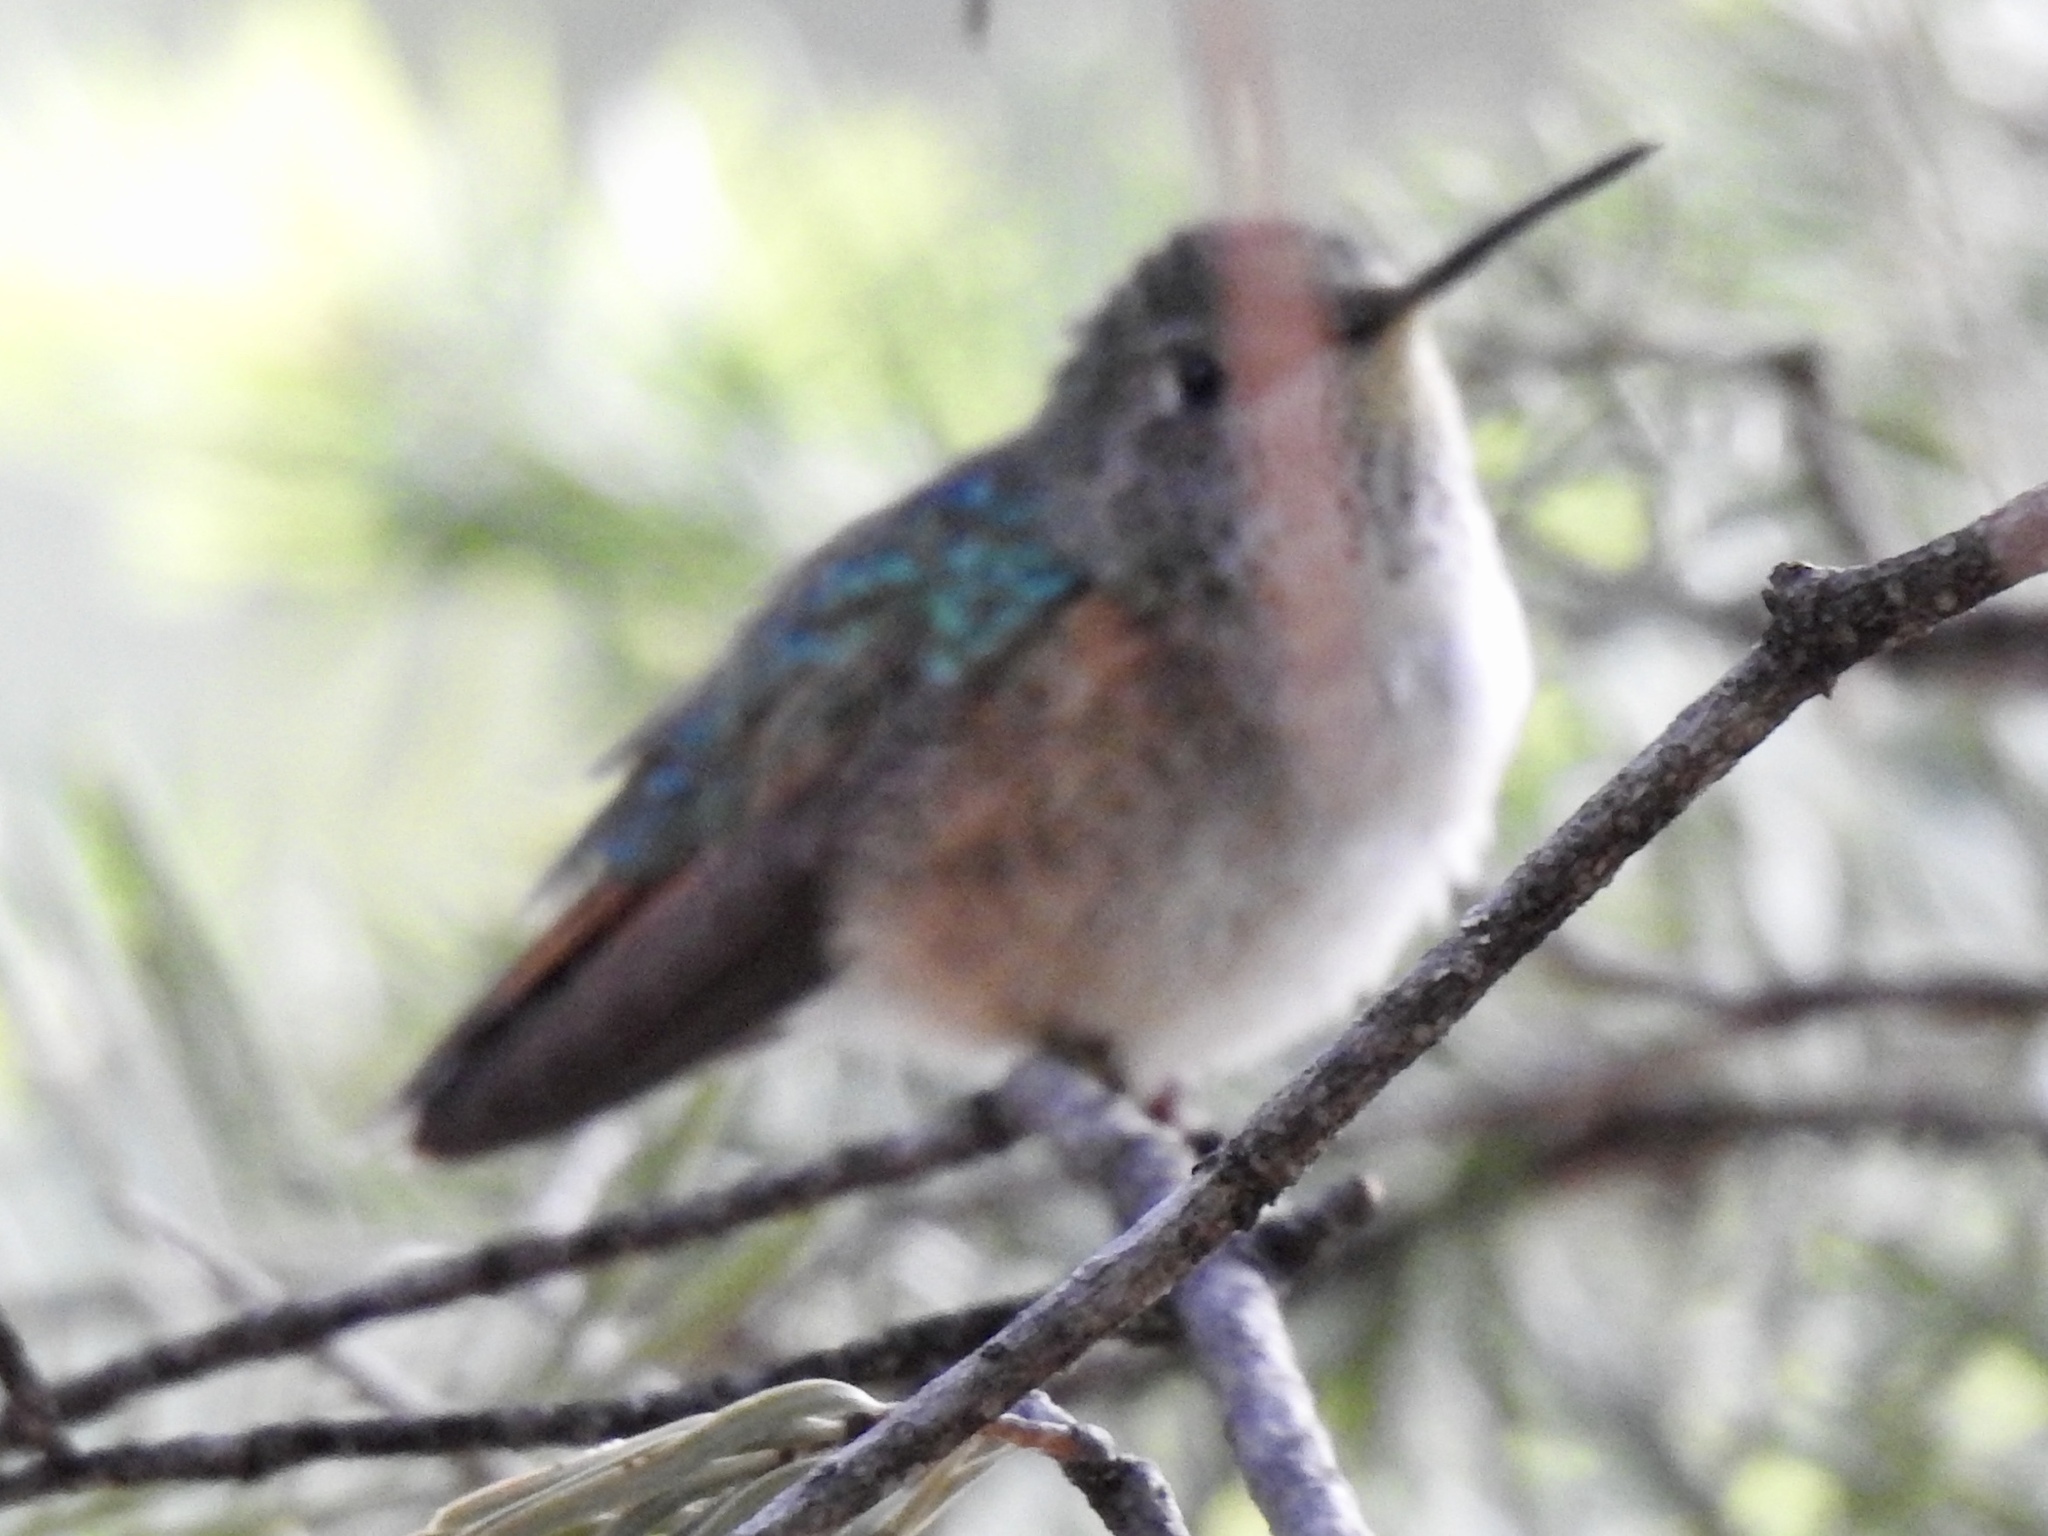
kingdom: Animalia
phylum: Chordata
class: Aves
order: Apodiformes
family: Trochilidae
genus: Selasphorus
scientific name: Selasphorus platycercus
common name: Broad-tailed hummingbird
